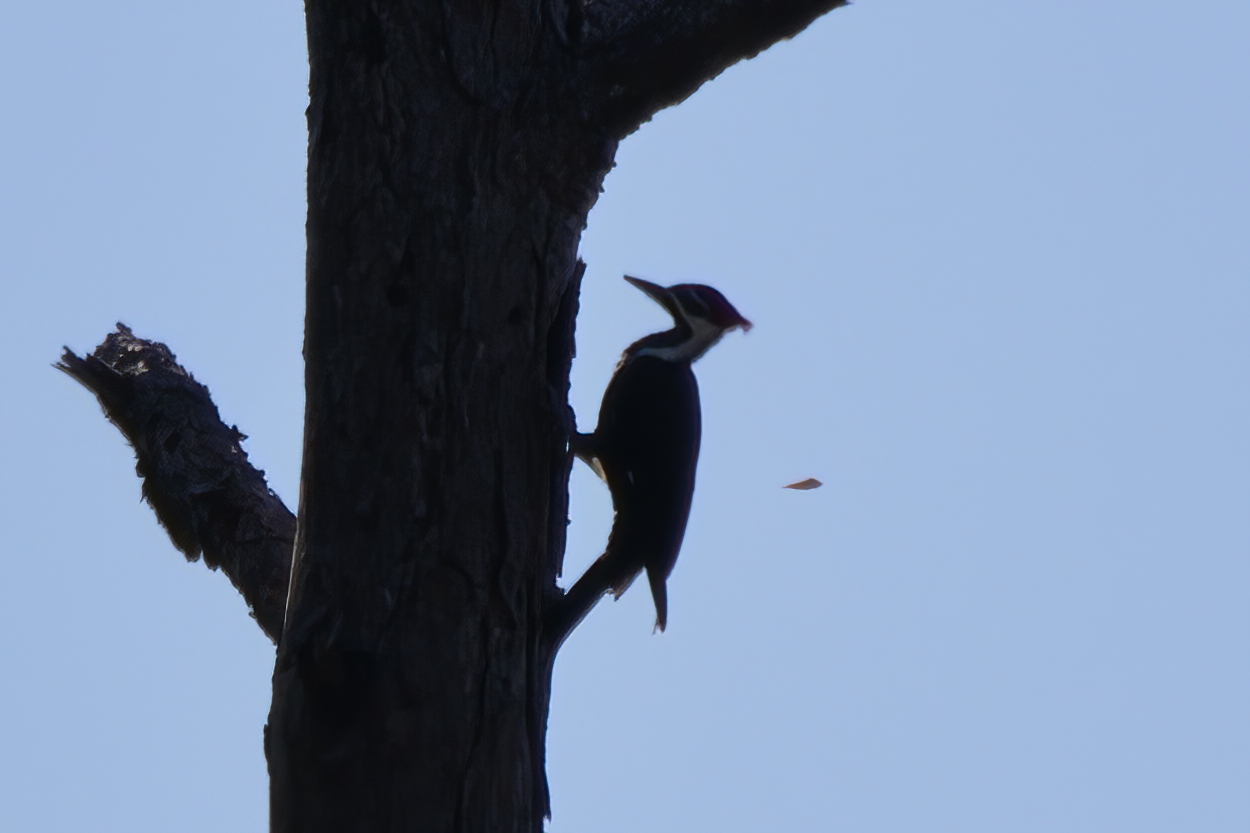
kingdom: Animalia
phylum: Chordata
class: Aves
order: Piciformes
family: Picidae
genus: Dryocopus
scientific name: Dryocopus pileatus
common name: Pileated woodpecker
